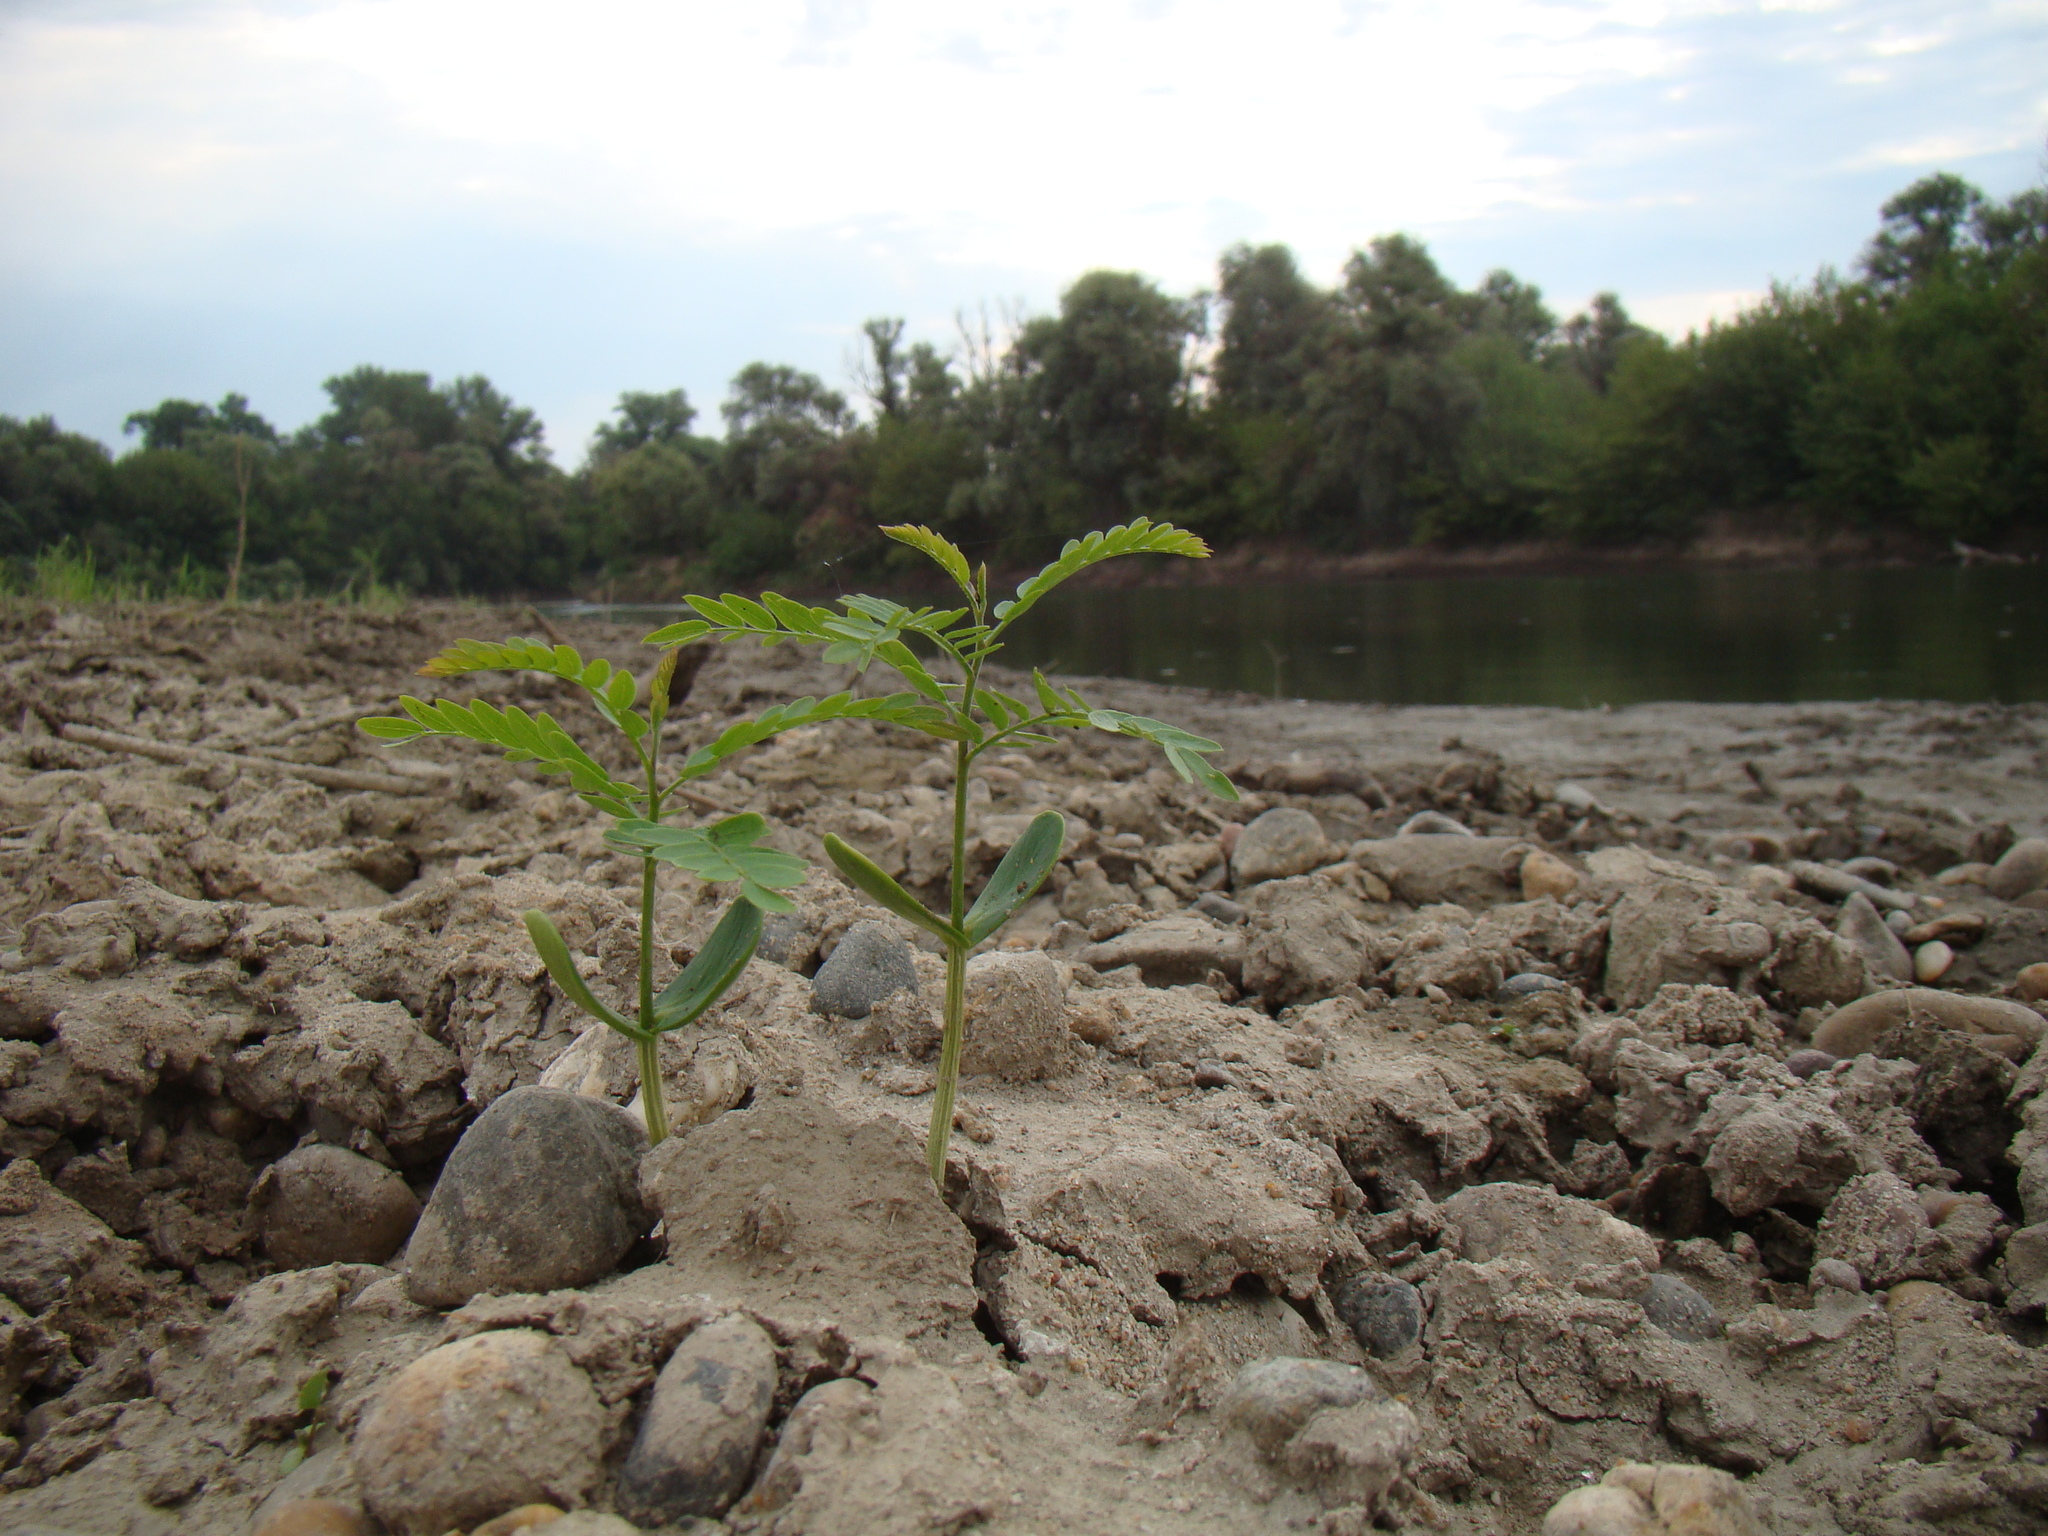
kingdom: Plantae
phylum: Tracheophyta
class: Magnoliopsida
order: Fabales
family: Fabaceae
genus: Gleditsia
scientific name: Gleditsia triacanthos
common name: Common honeylocust
